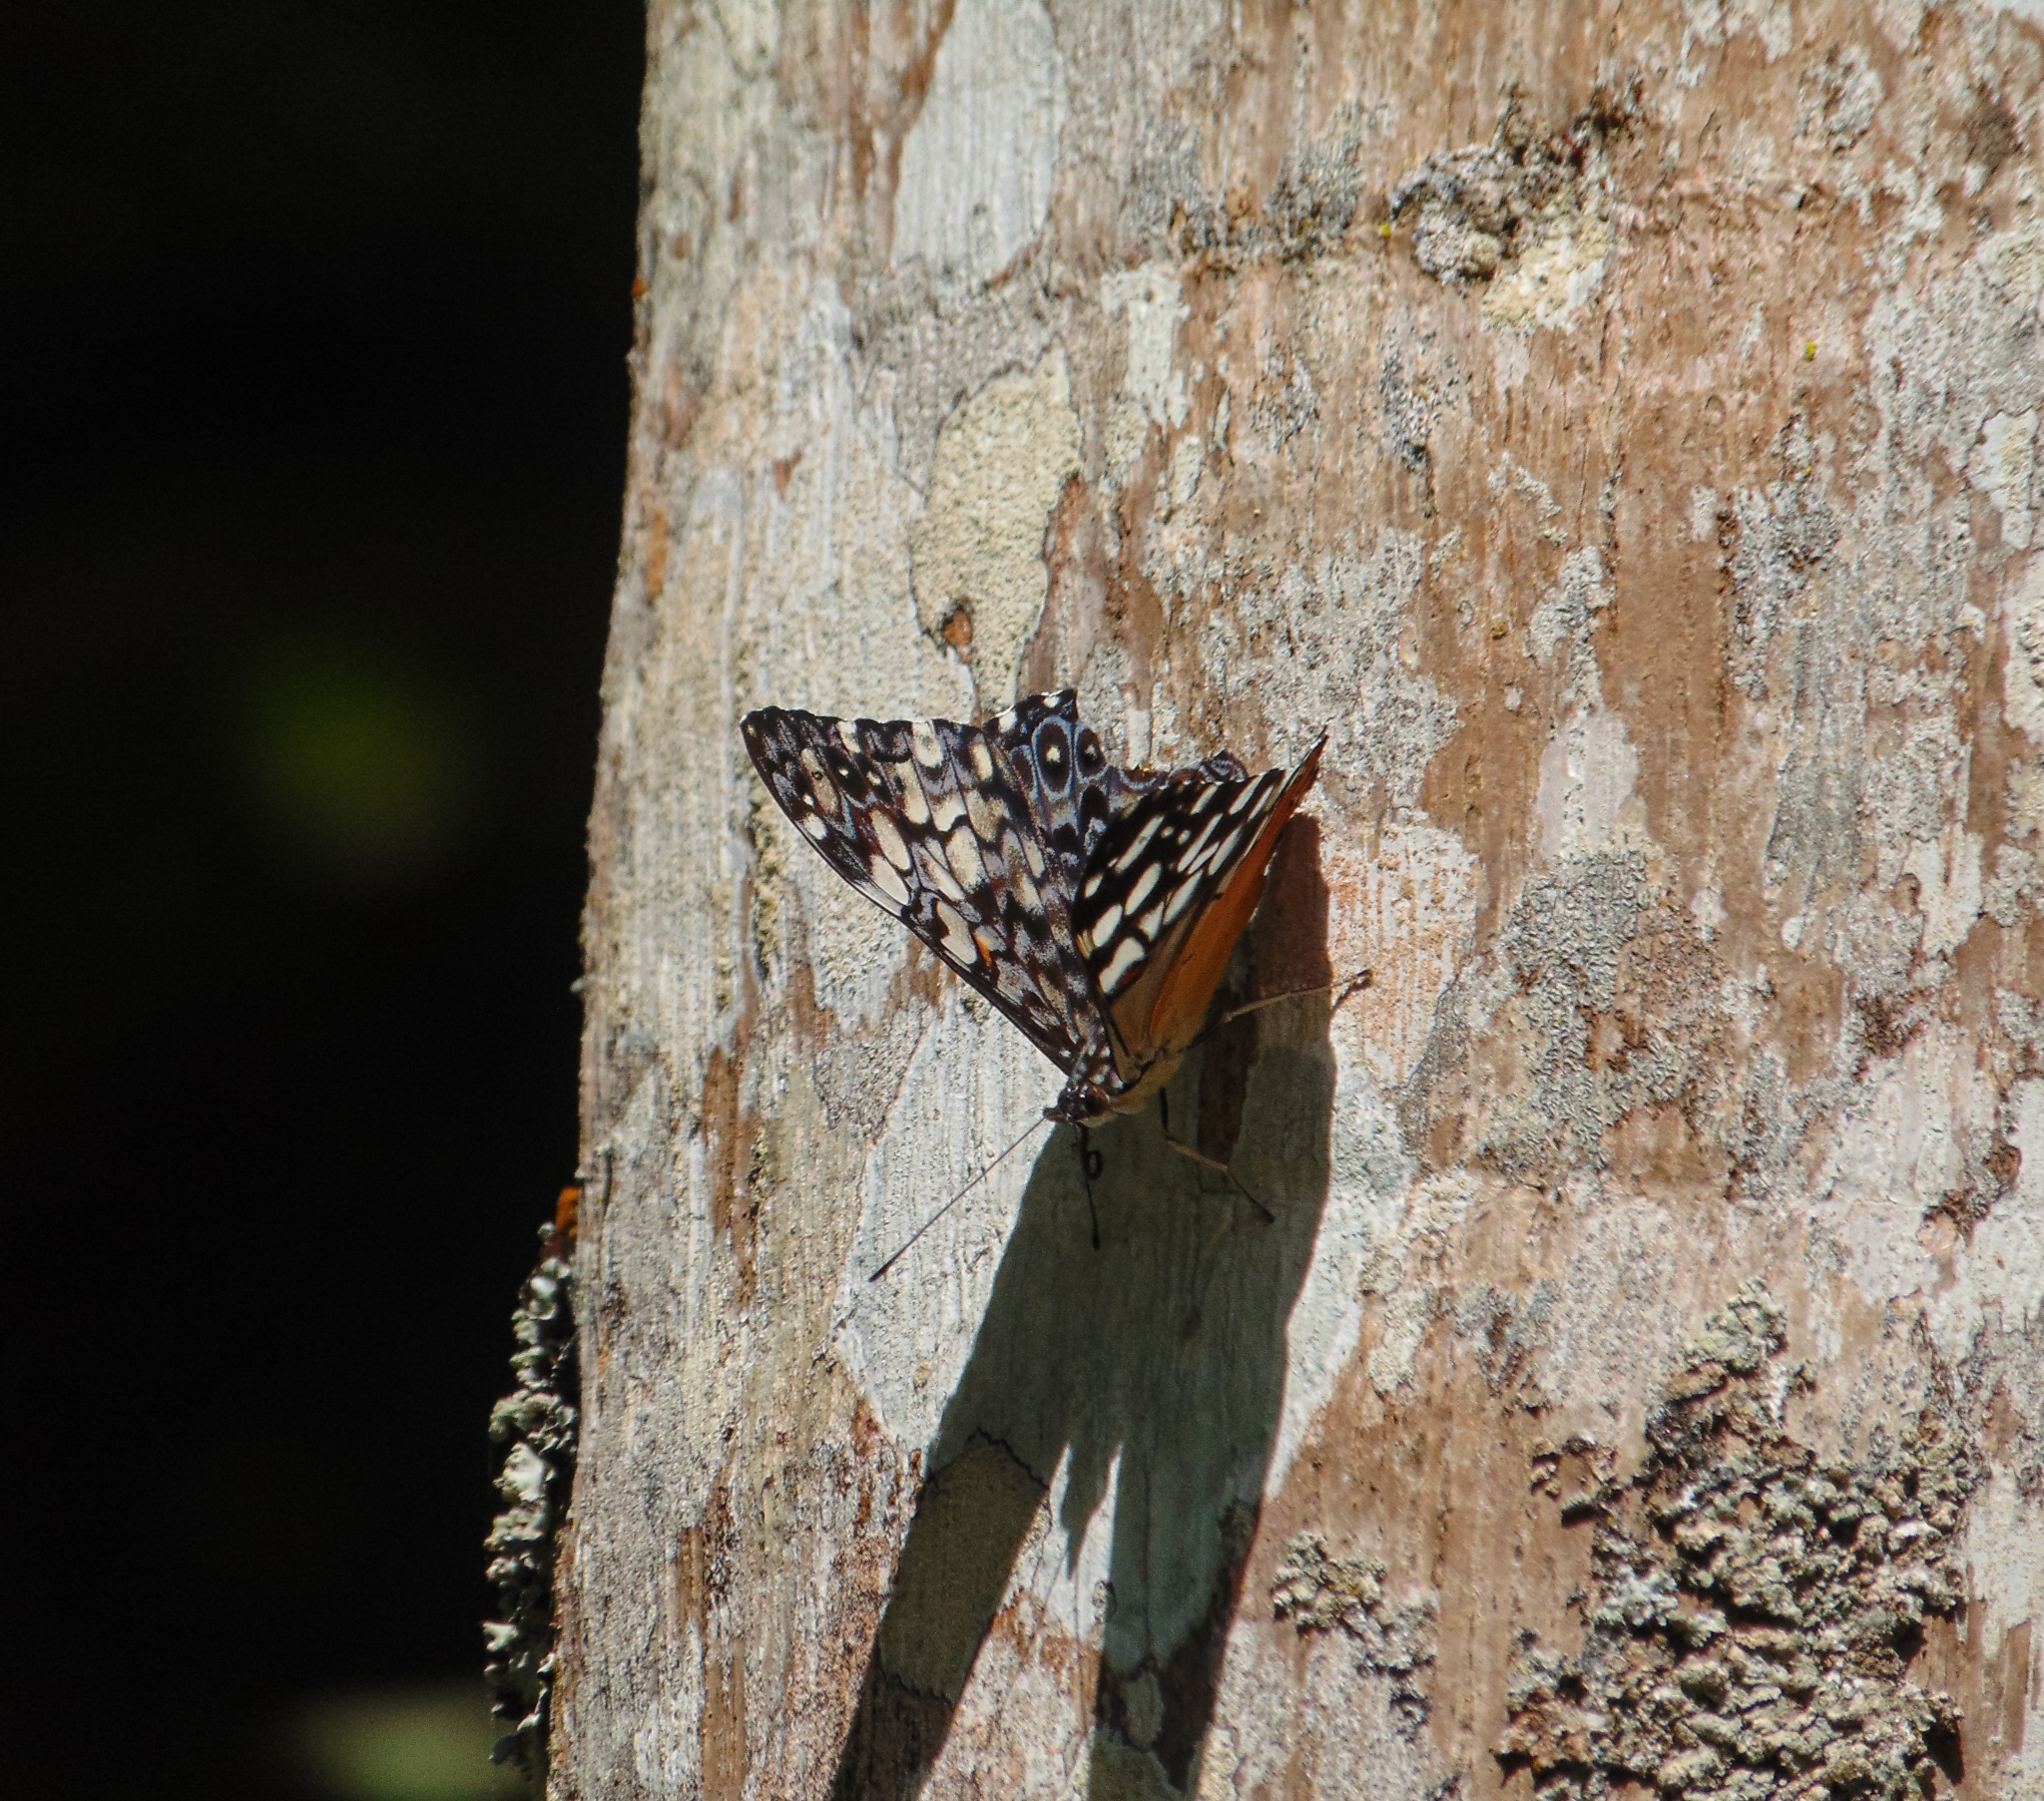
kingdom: Animalia
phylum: Arthropoda
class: Insecta
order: Lepidoptera
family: Nymphalidae
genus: Hamadryas
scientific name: Hamadryas fornax
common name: Orange cracker
